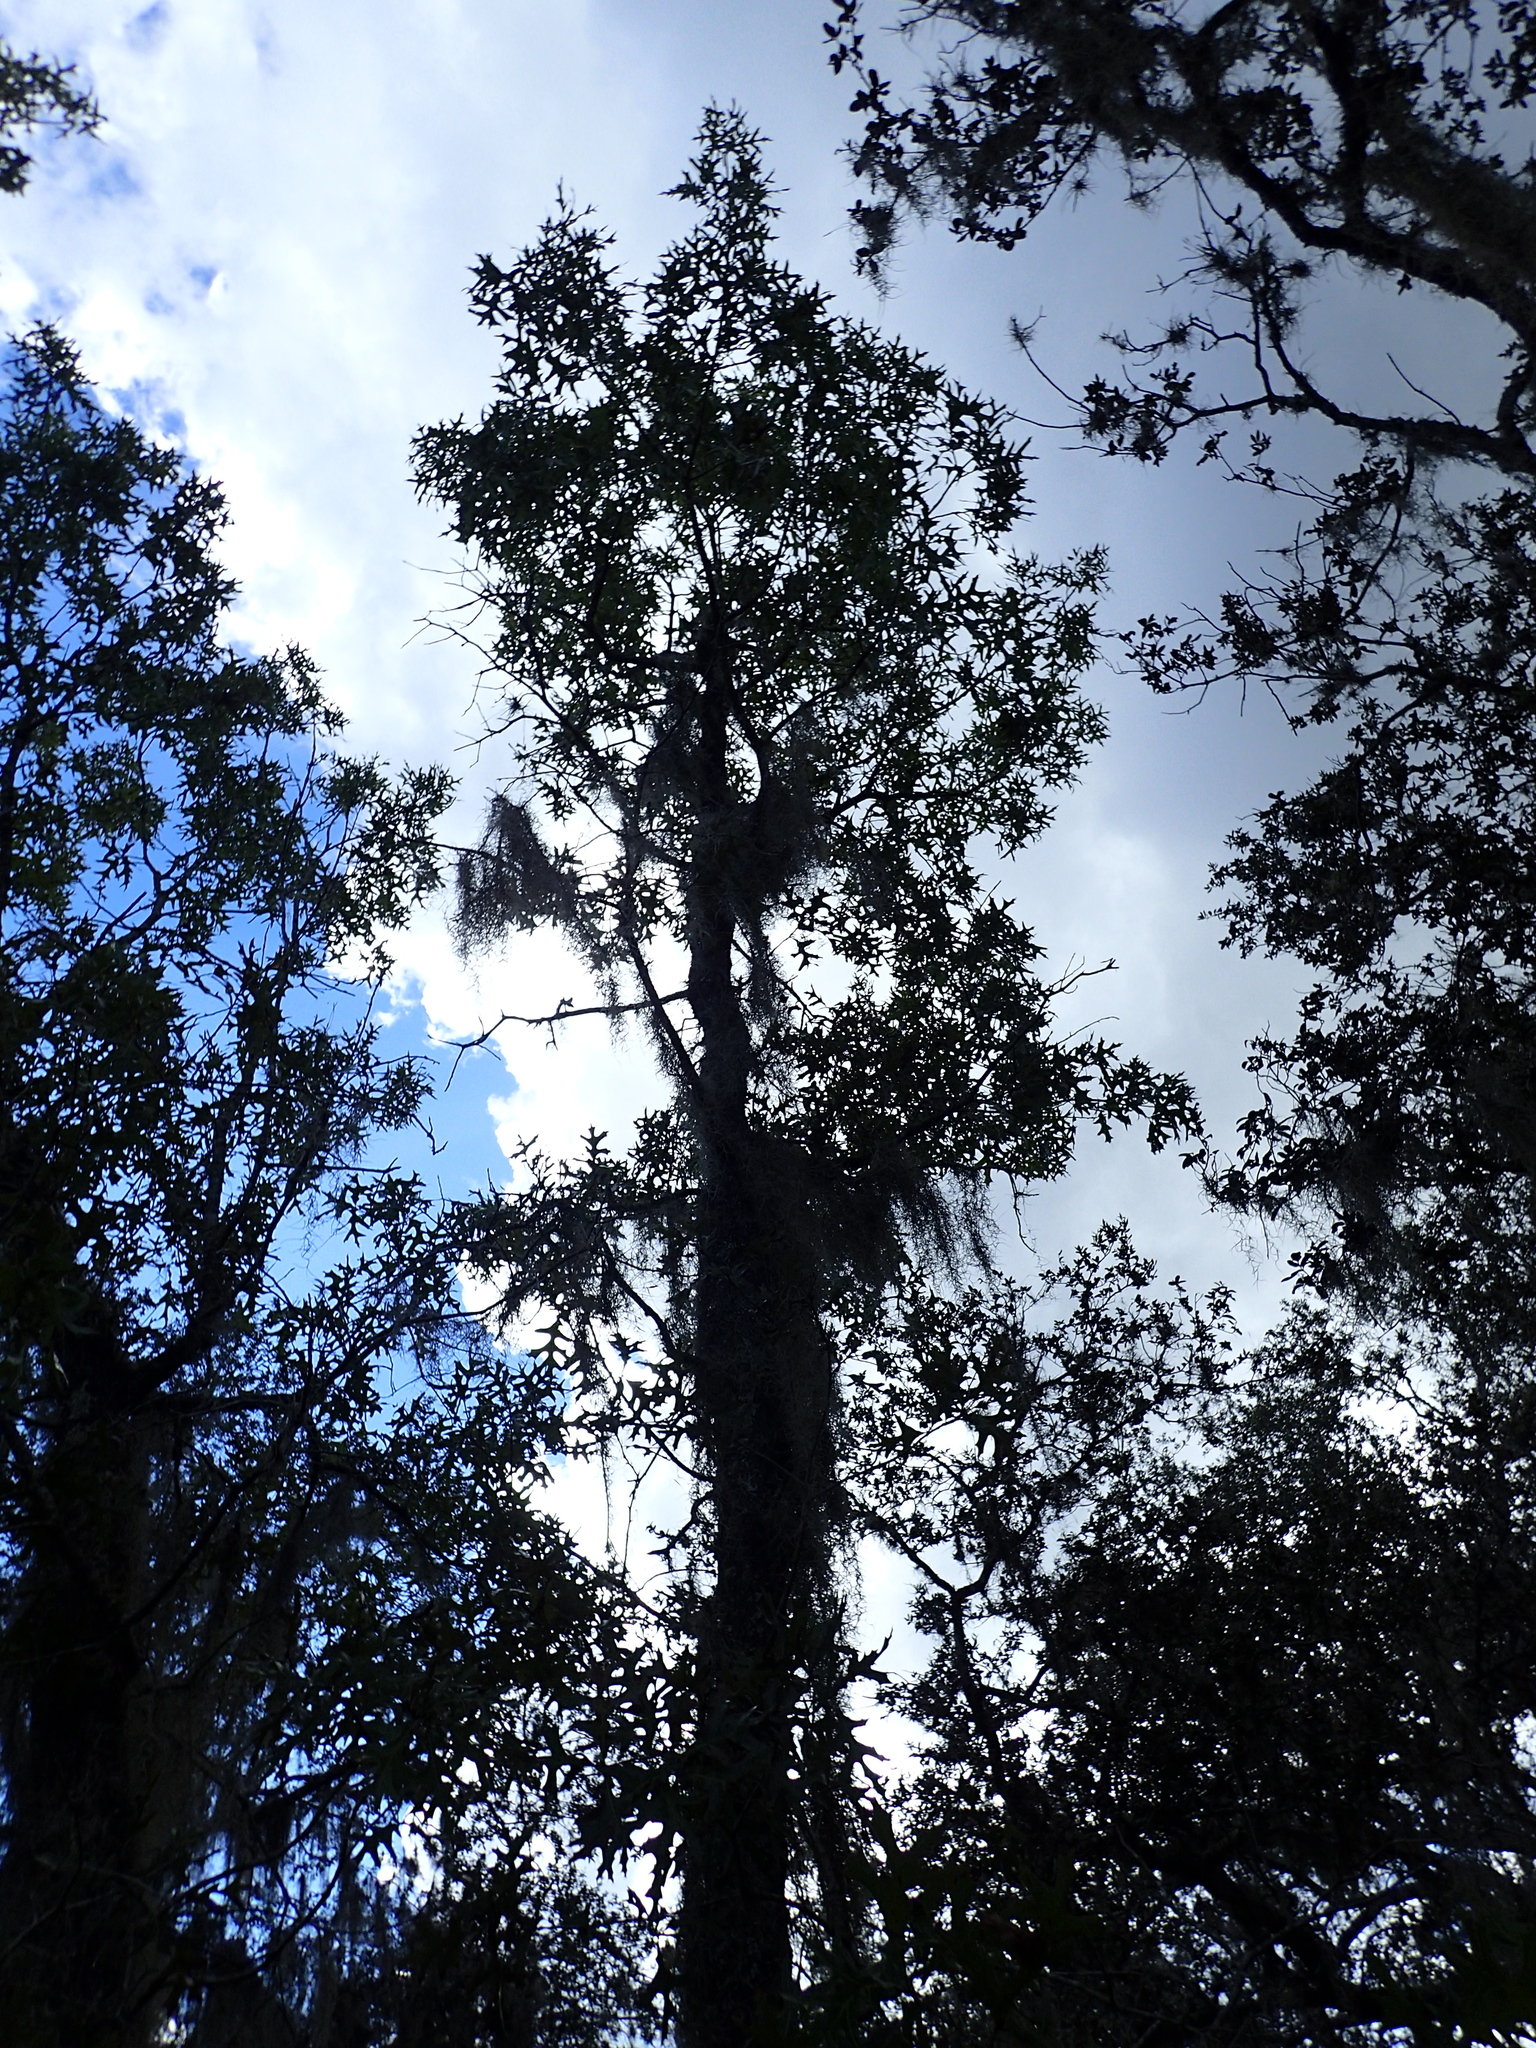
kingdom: Plantae
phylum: Tracheophyta
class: Magnoliopsida
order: Fagales
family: Fagaceae
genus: Quercus
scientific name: Quercus laevis
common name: Turkey oak
